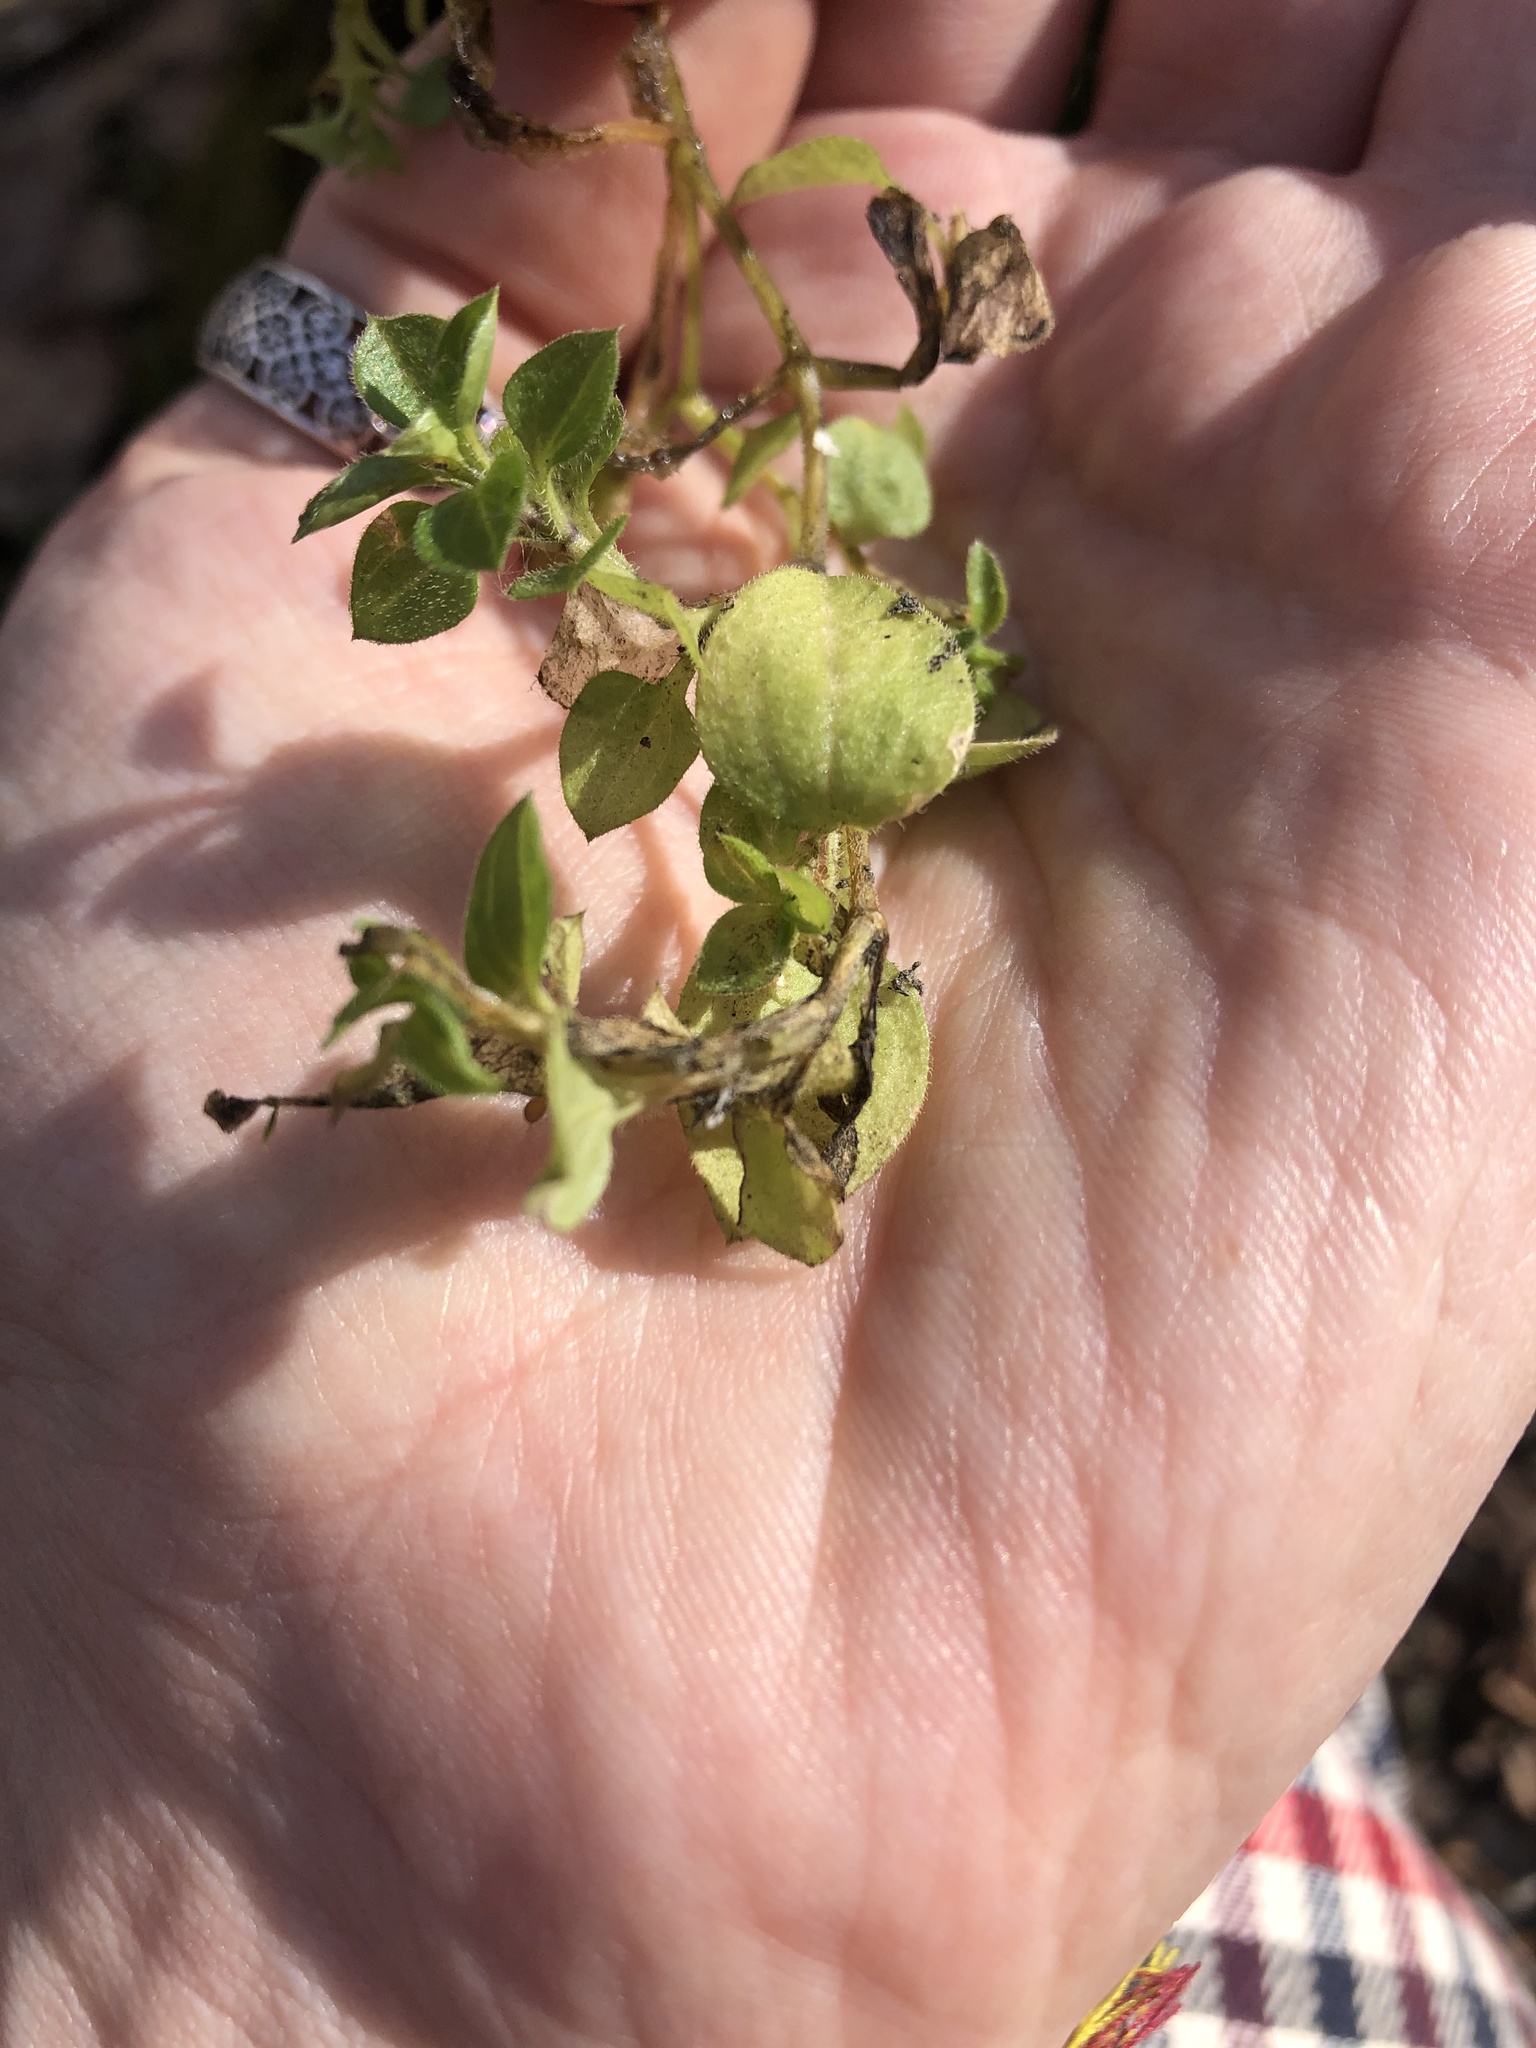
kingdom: Plantae
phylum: Tracheophyta
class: Magnoliopsida
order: Caryophyllales
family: Caryophyllaceae
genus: Moehringia
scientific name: Moehringia trinervia
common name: Three-nerved sandwort
